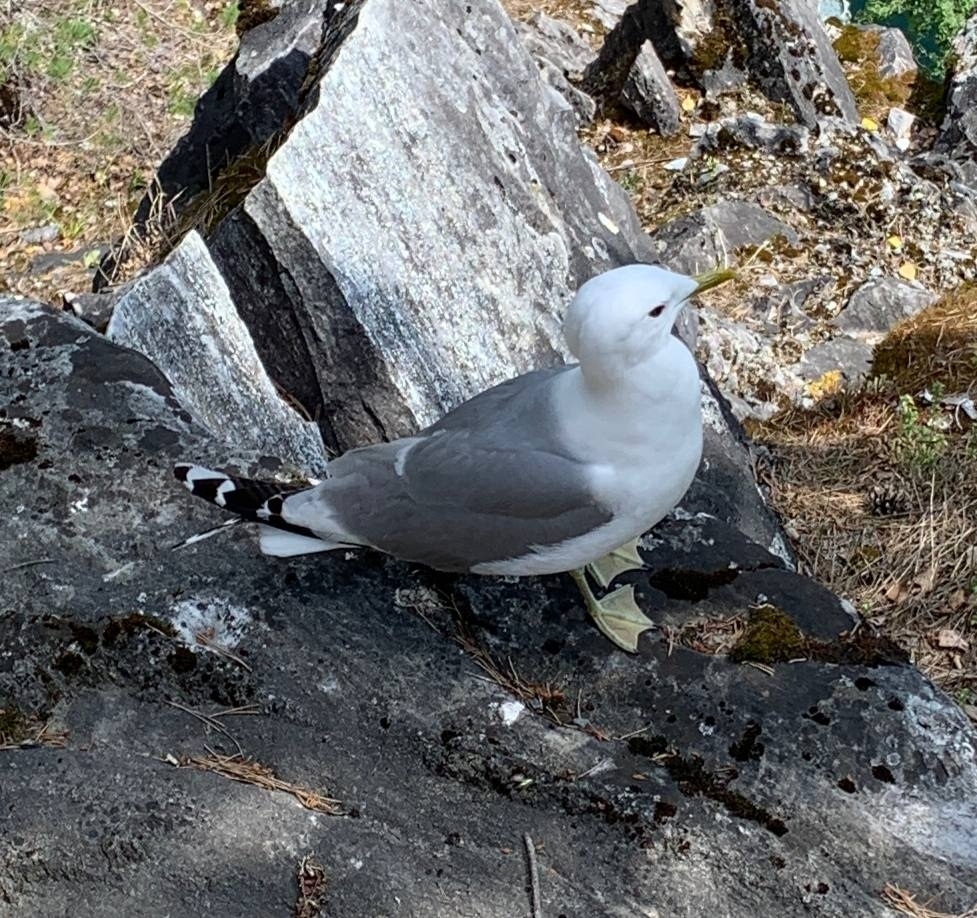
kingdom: Animalia
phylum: Chordata
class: Aves
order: Charadriiformes
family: Laridae
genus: Larus
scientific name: Larus canus
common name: Mew gull
